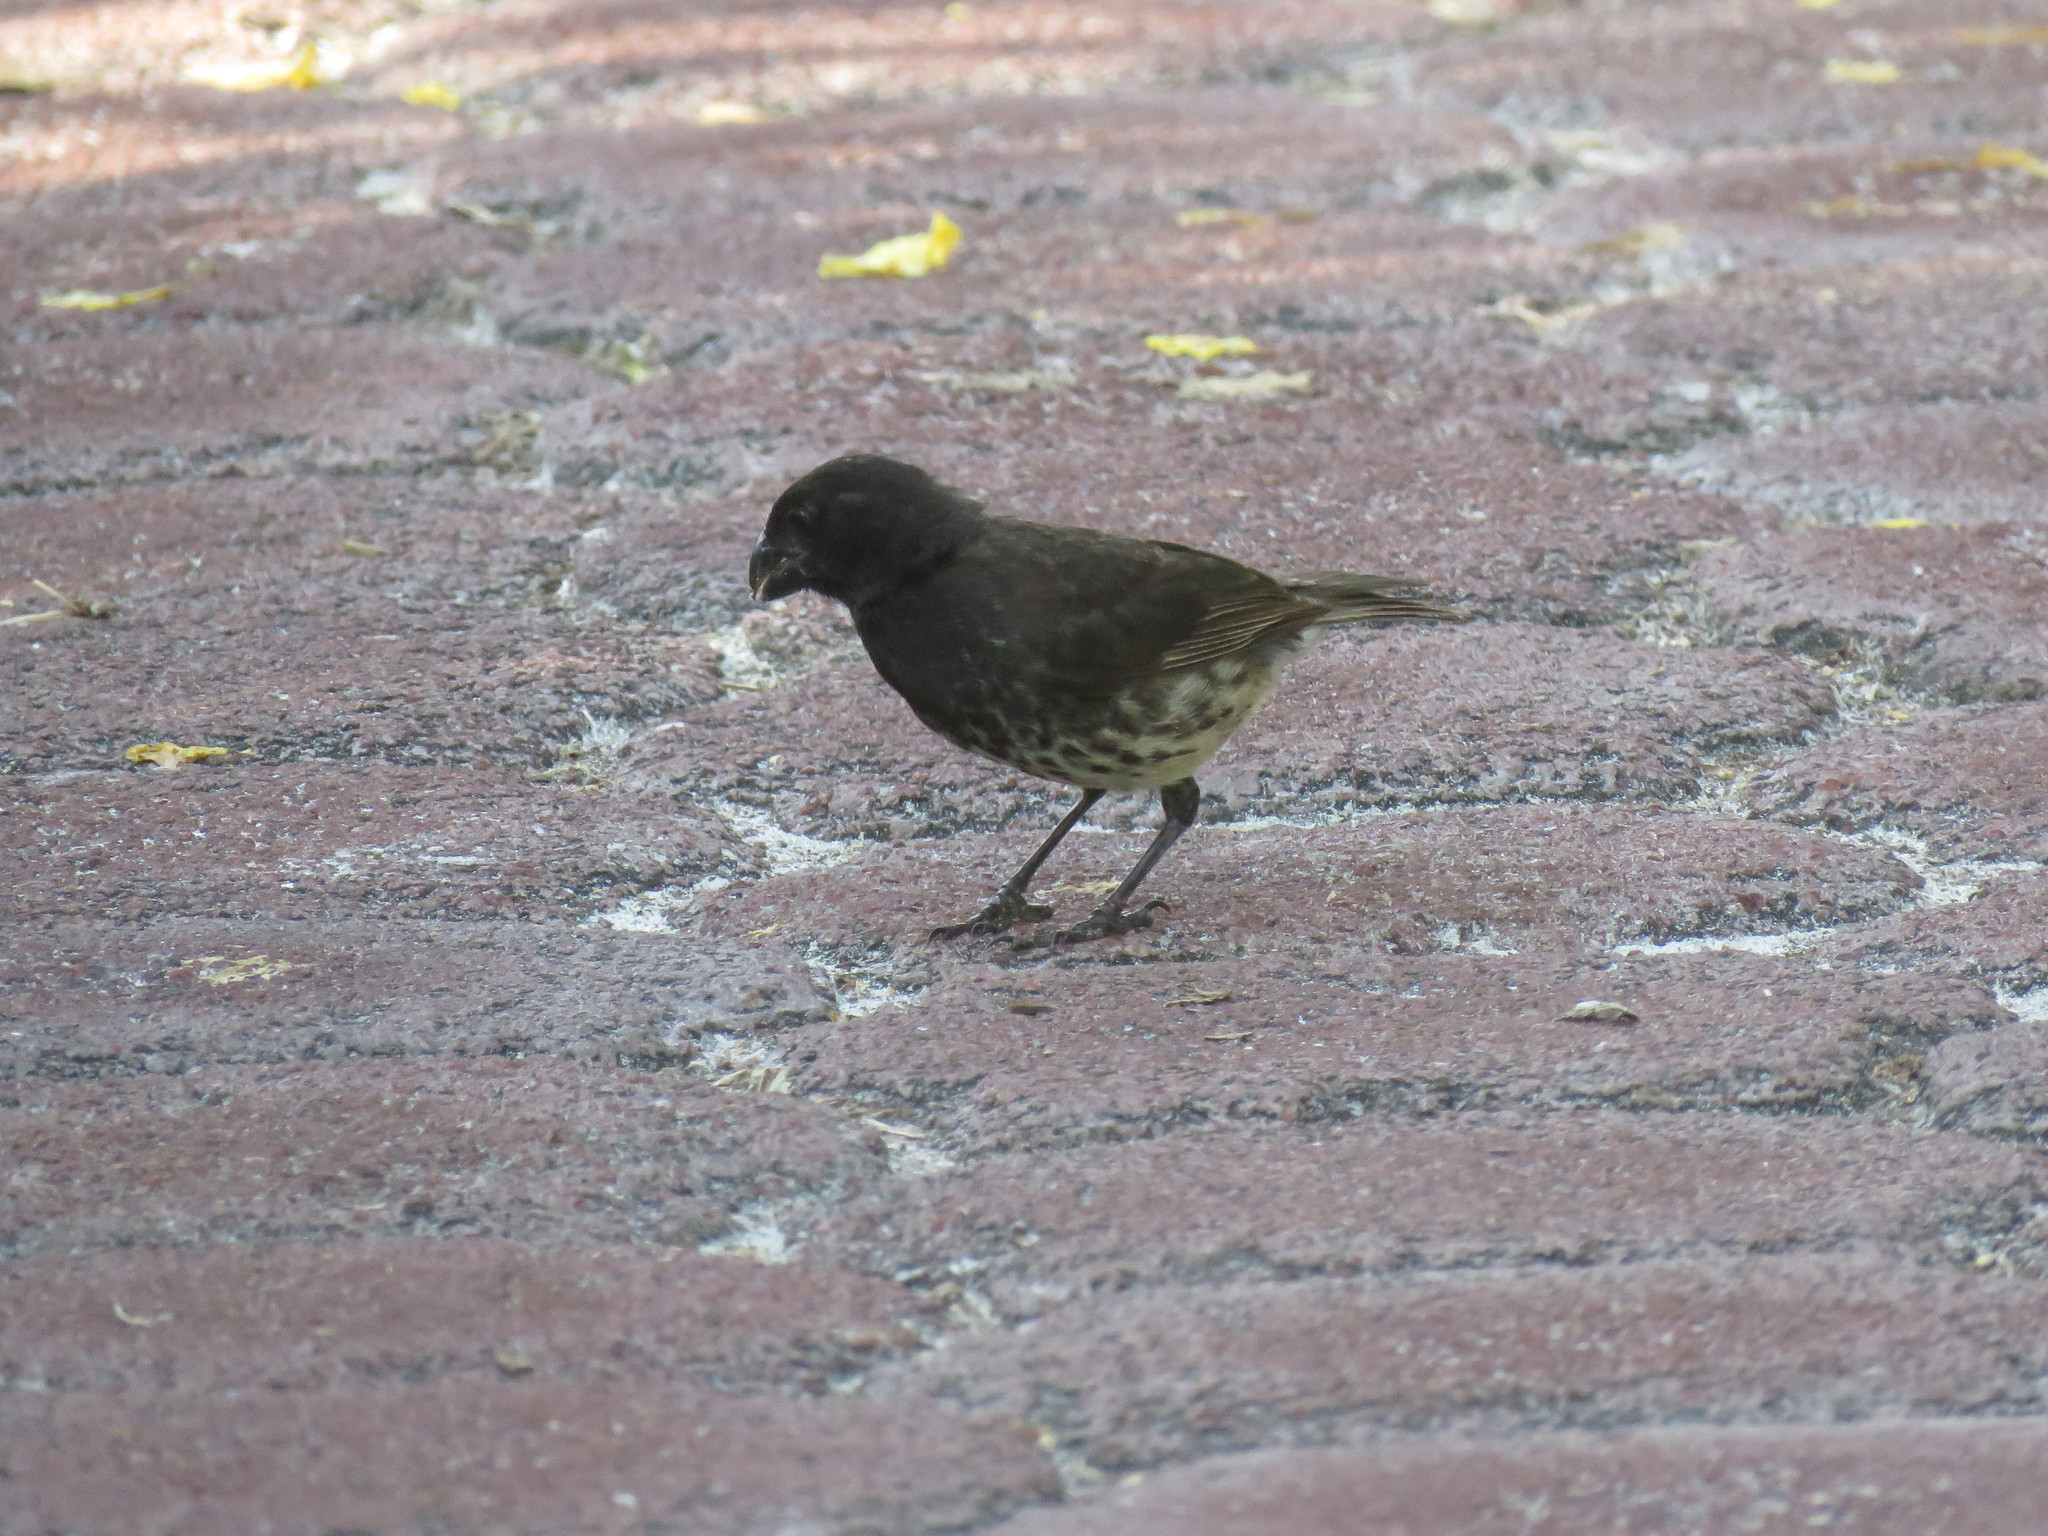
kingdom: Animalia
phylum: Chordata
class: Aves
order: Passeriformes
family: Thraupidae
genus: Platyspiza
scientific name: Platyspiza crassirostris
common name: Vegetarian finch
